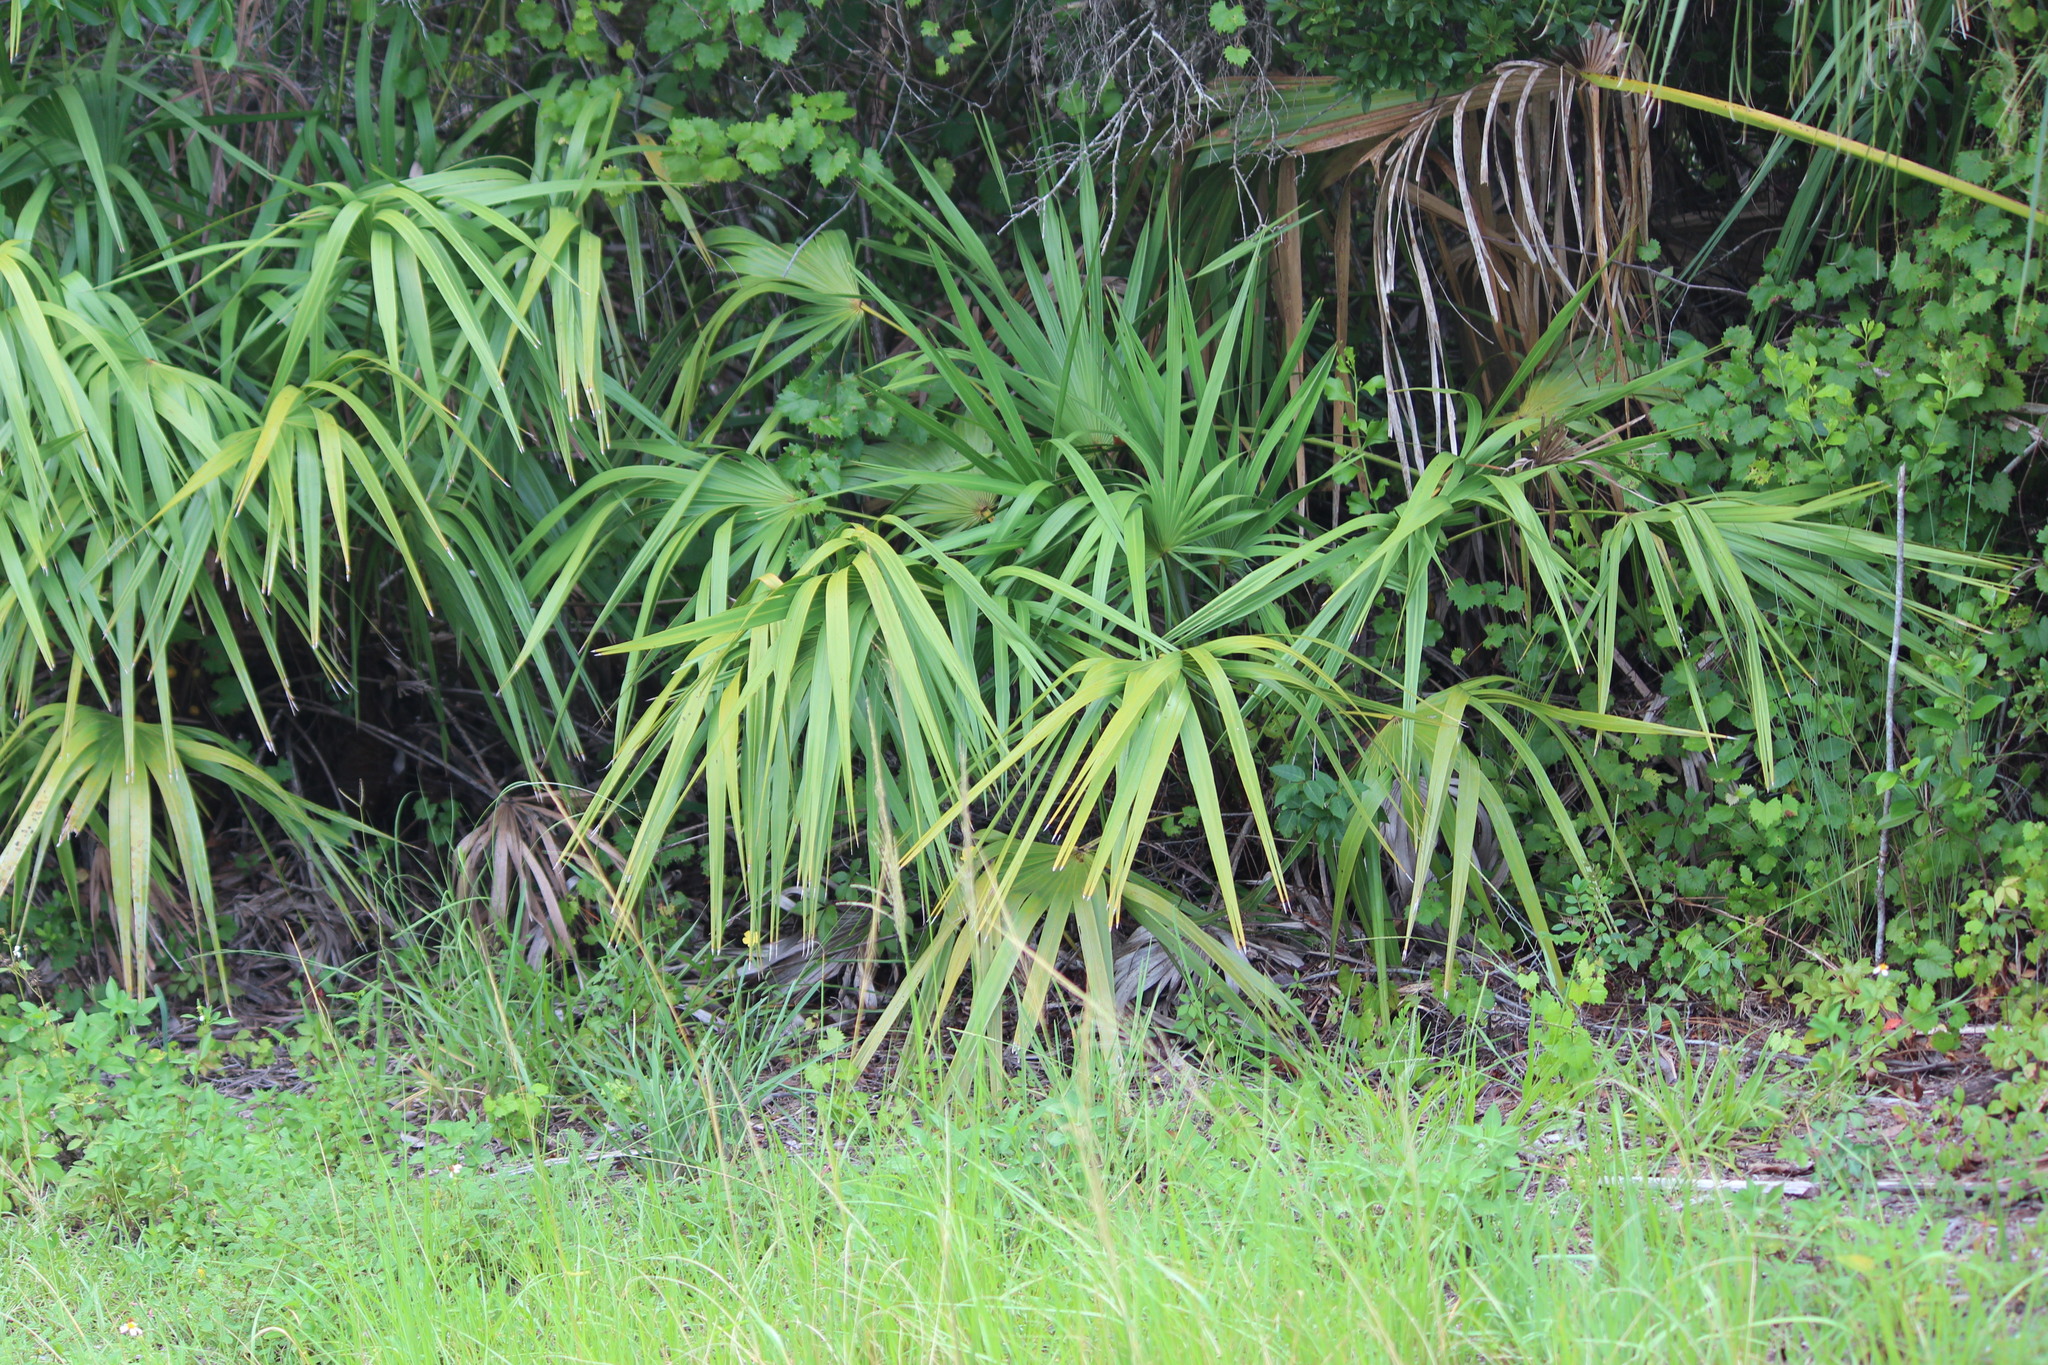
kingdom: Plantae
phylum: Tracheophyta
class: Liliopsida
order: Arecales
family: Arecaceae
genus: Serenoa
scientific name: Serenoa repens
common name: Saw-palmetto
